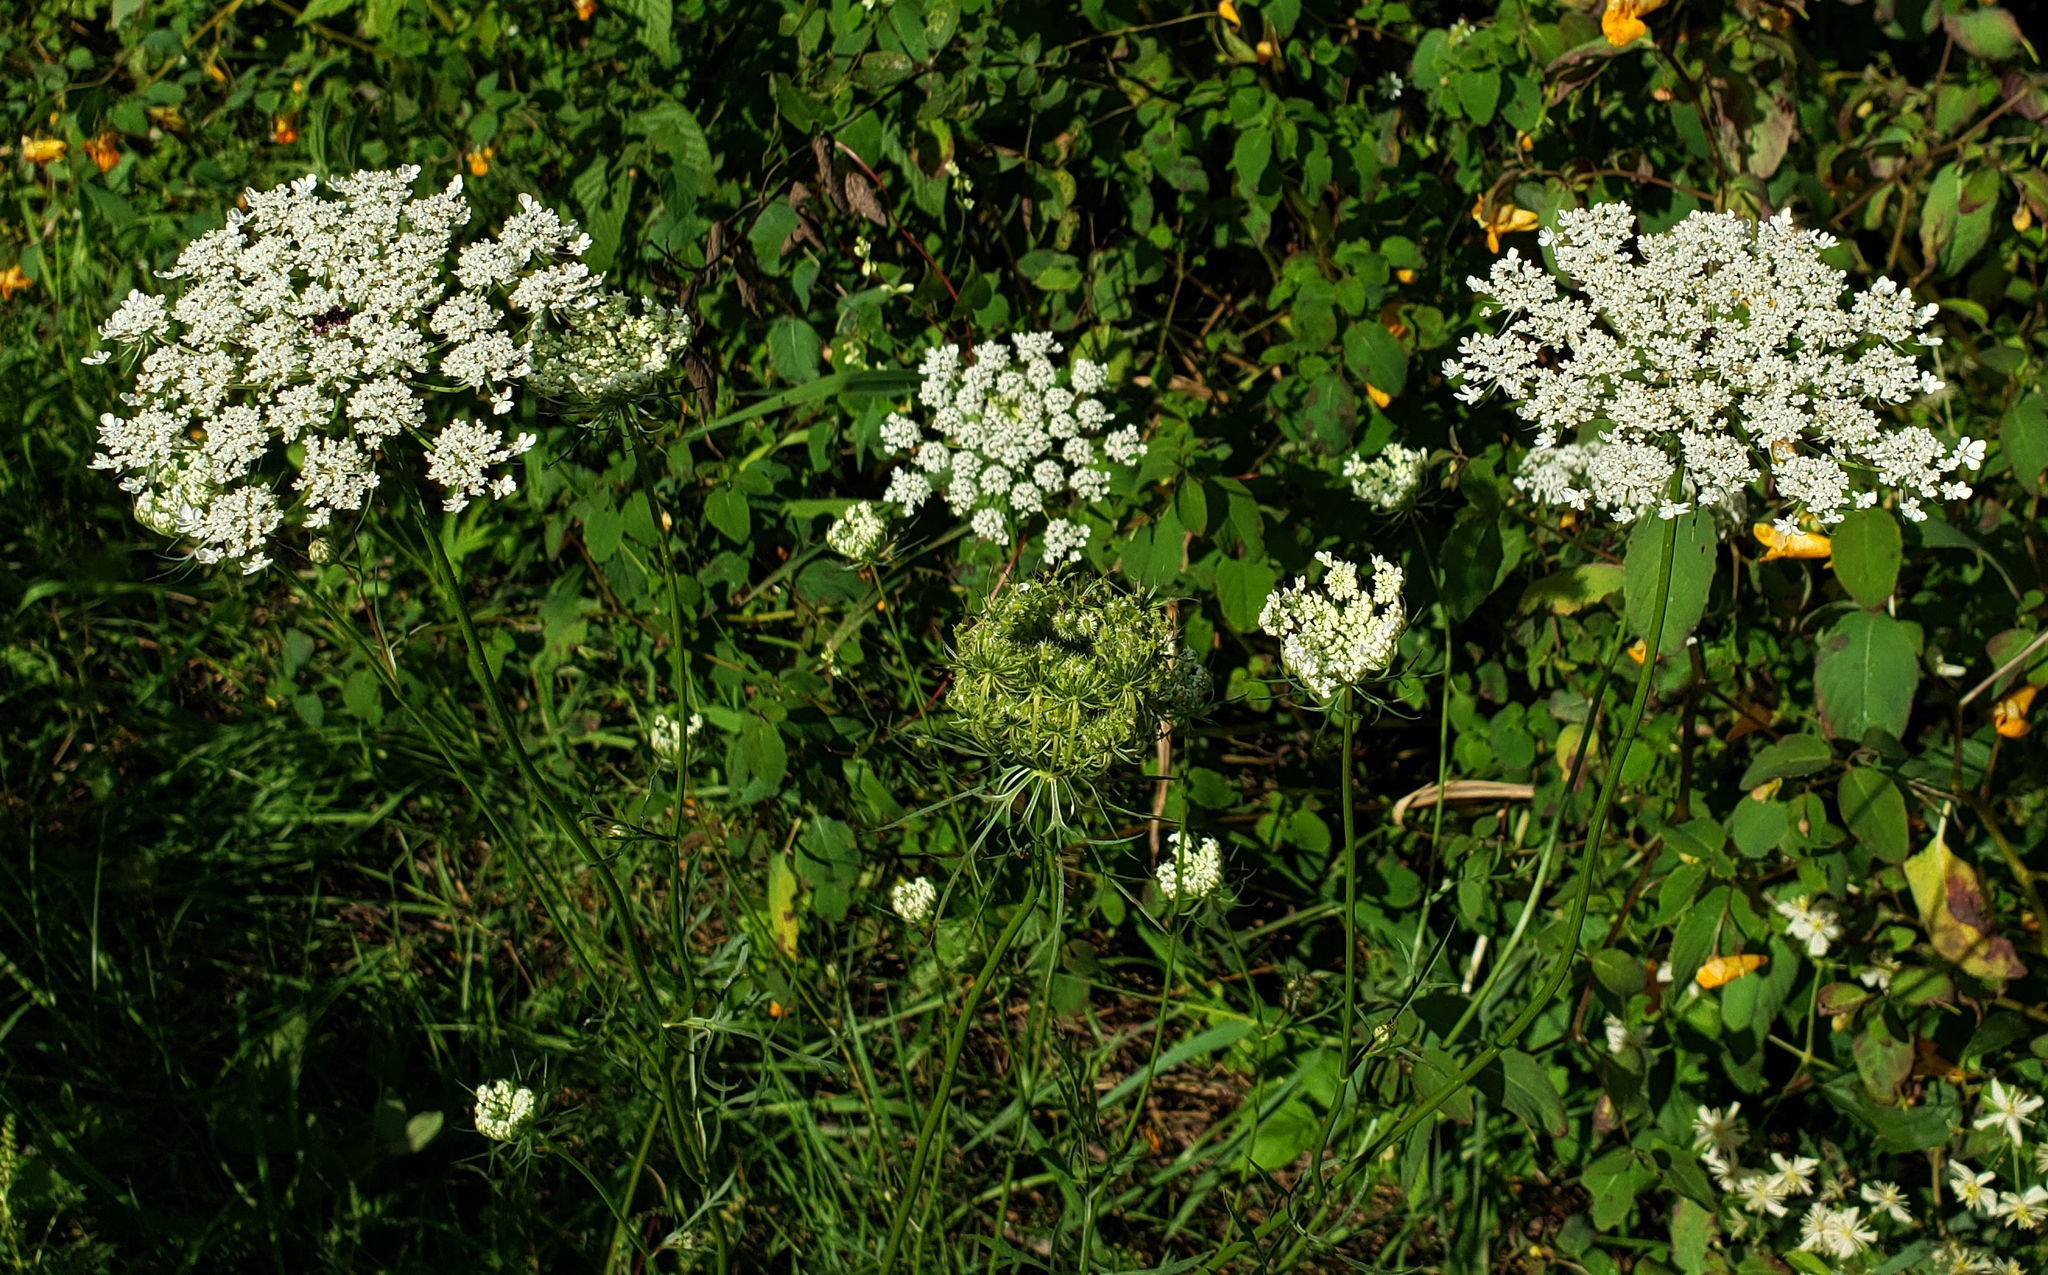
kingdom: Plantae
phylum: Tracheophyta
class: Magnoliopsida
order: Apiales
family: Apiaceae
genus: Daucus
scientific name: Daucus carota
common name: Wild carrot
